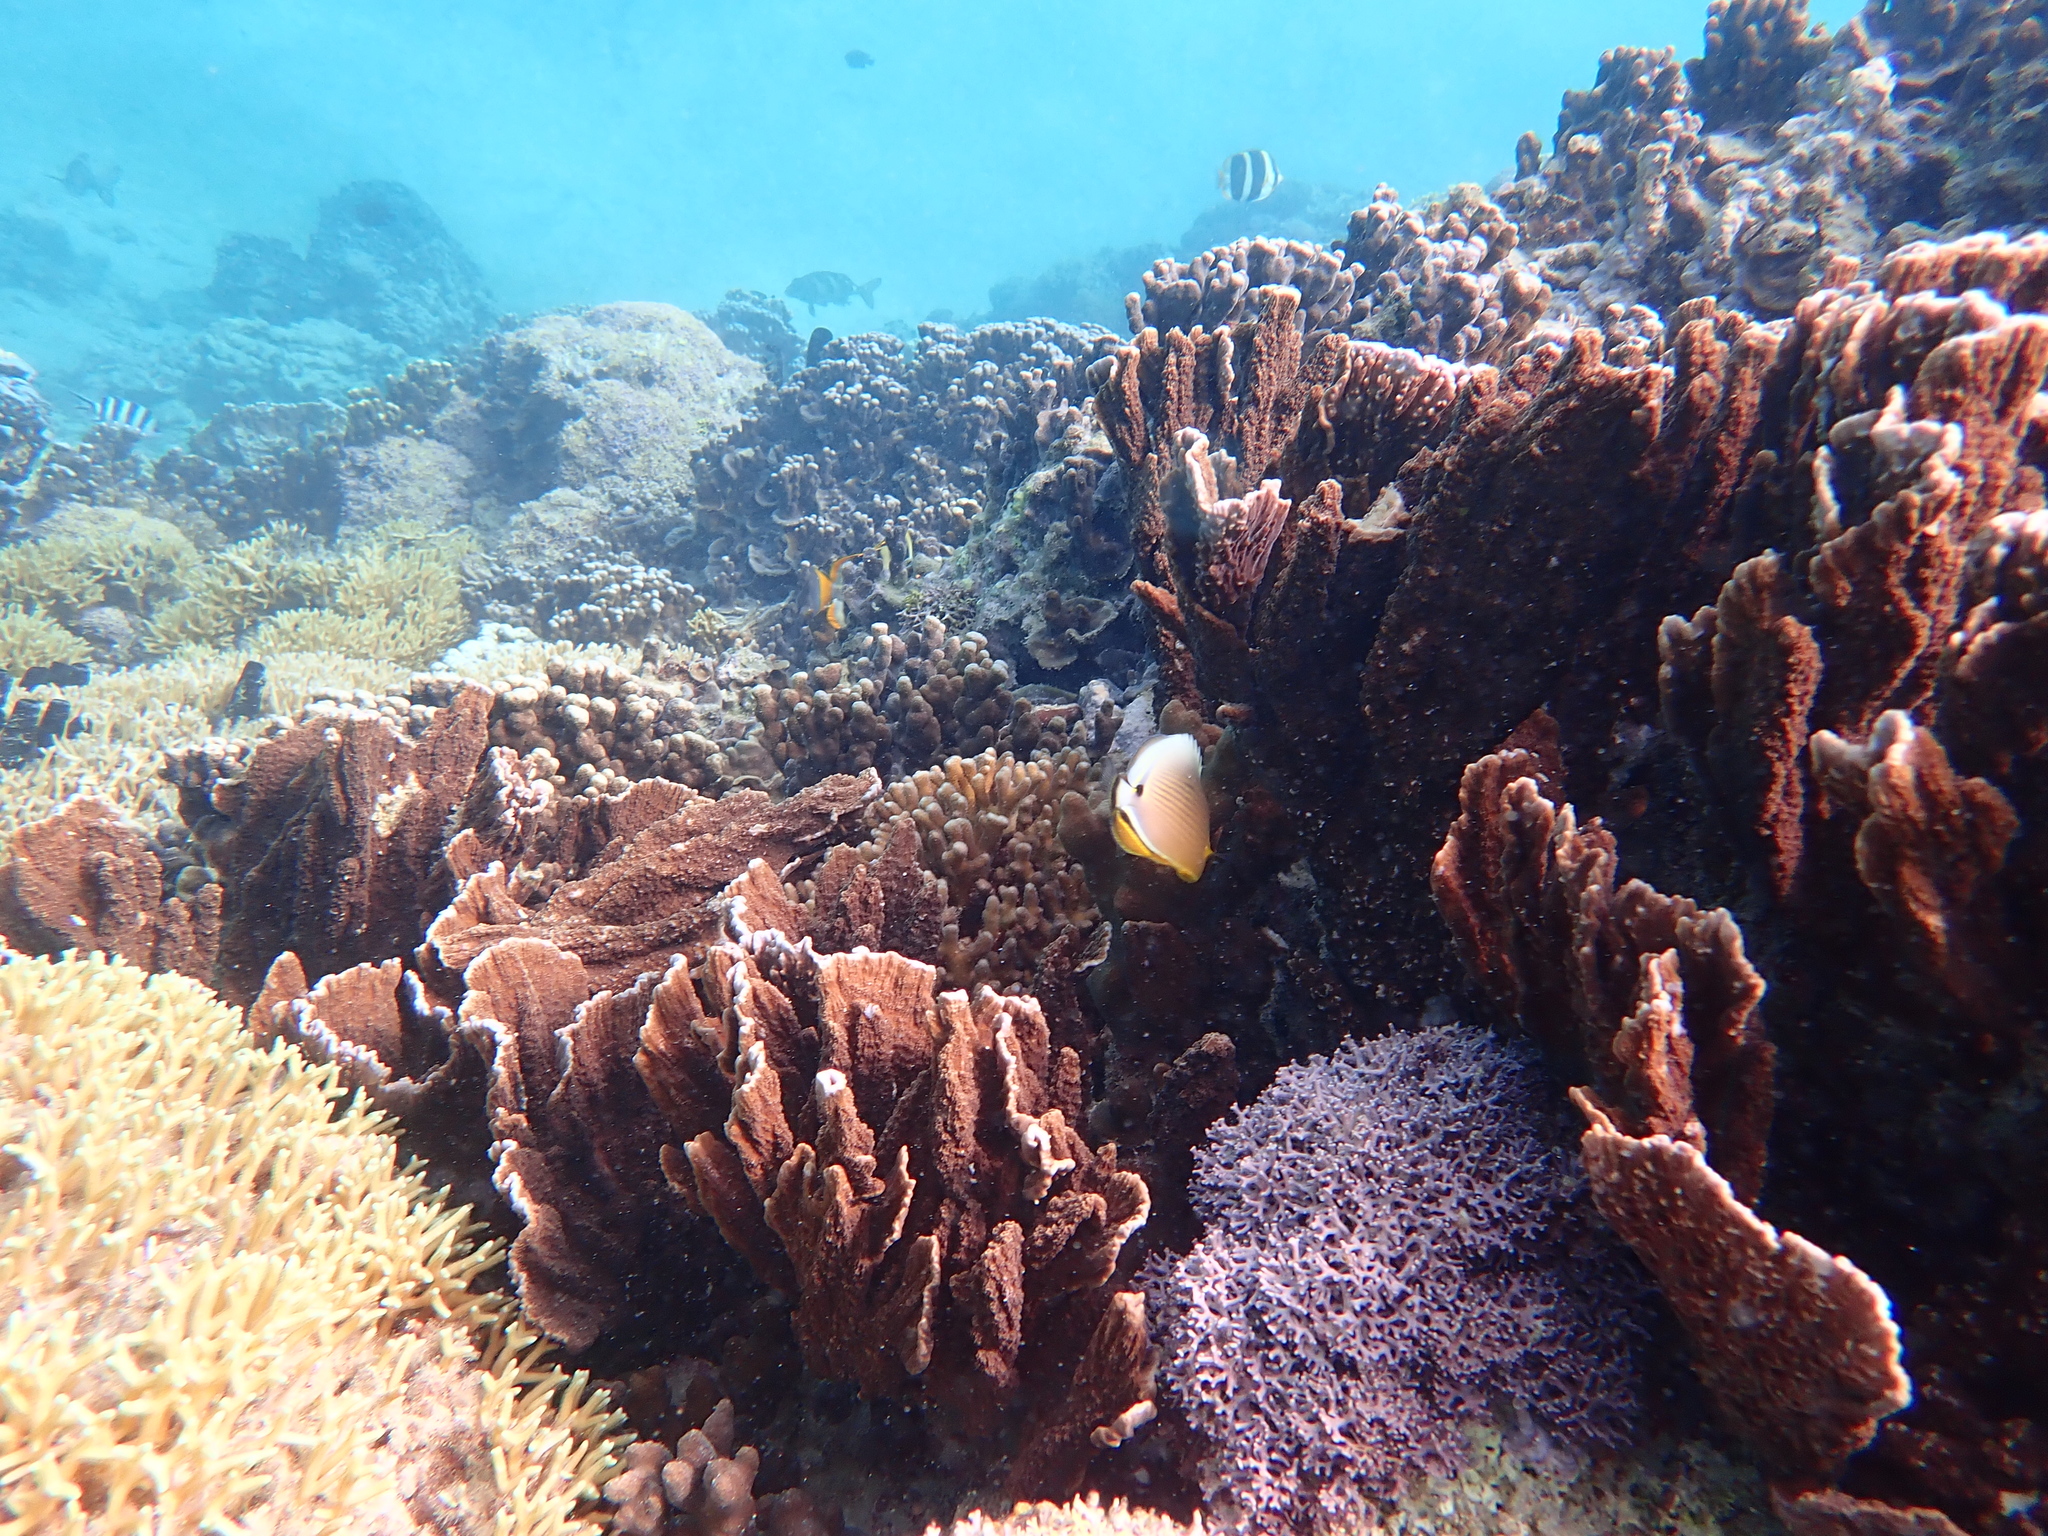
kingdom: Animalia
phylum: Chordata
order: Perciformes
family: Chaetodontidae
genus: Chaetodon
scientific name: Chaetodon lunulatus
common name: Redfin butterflyfish
